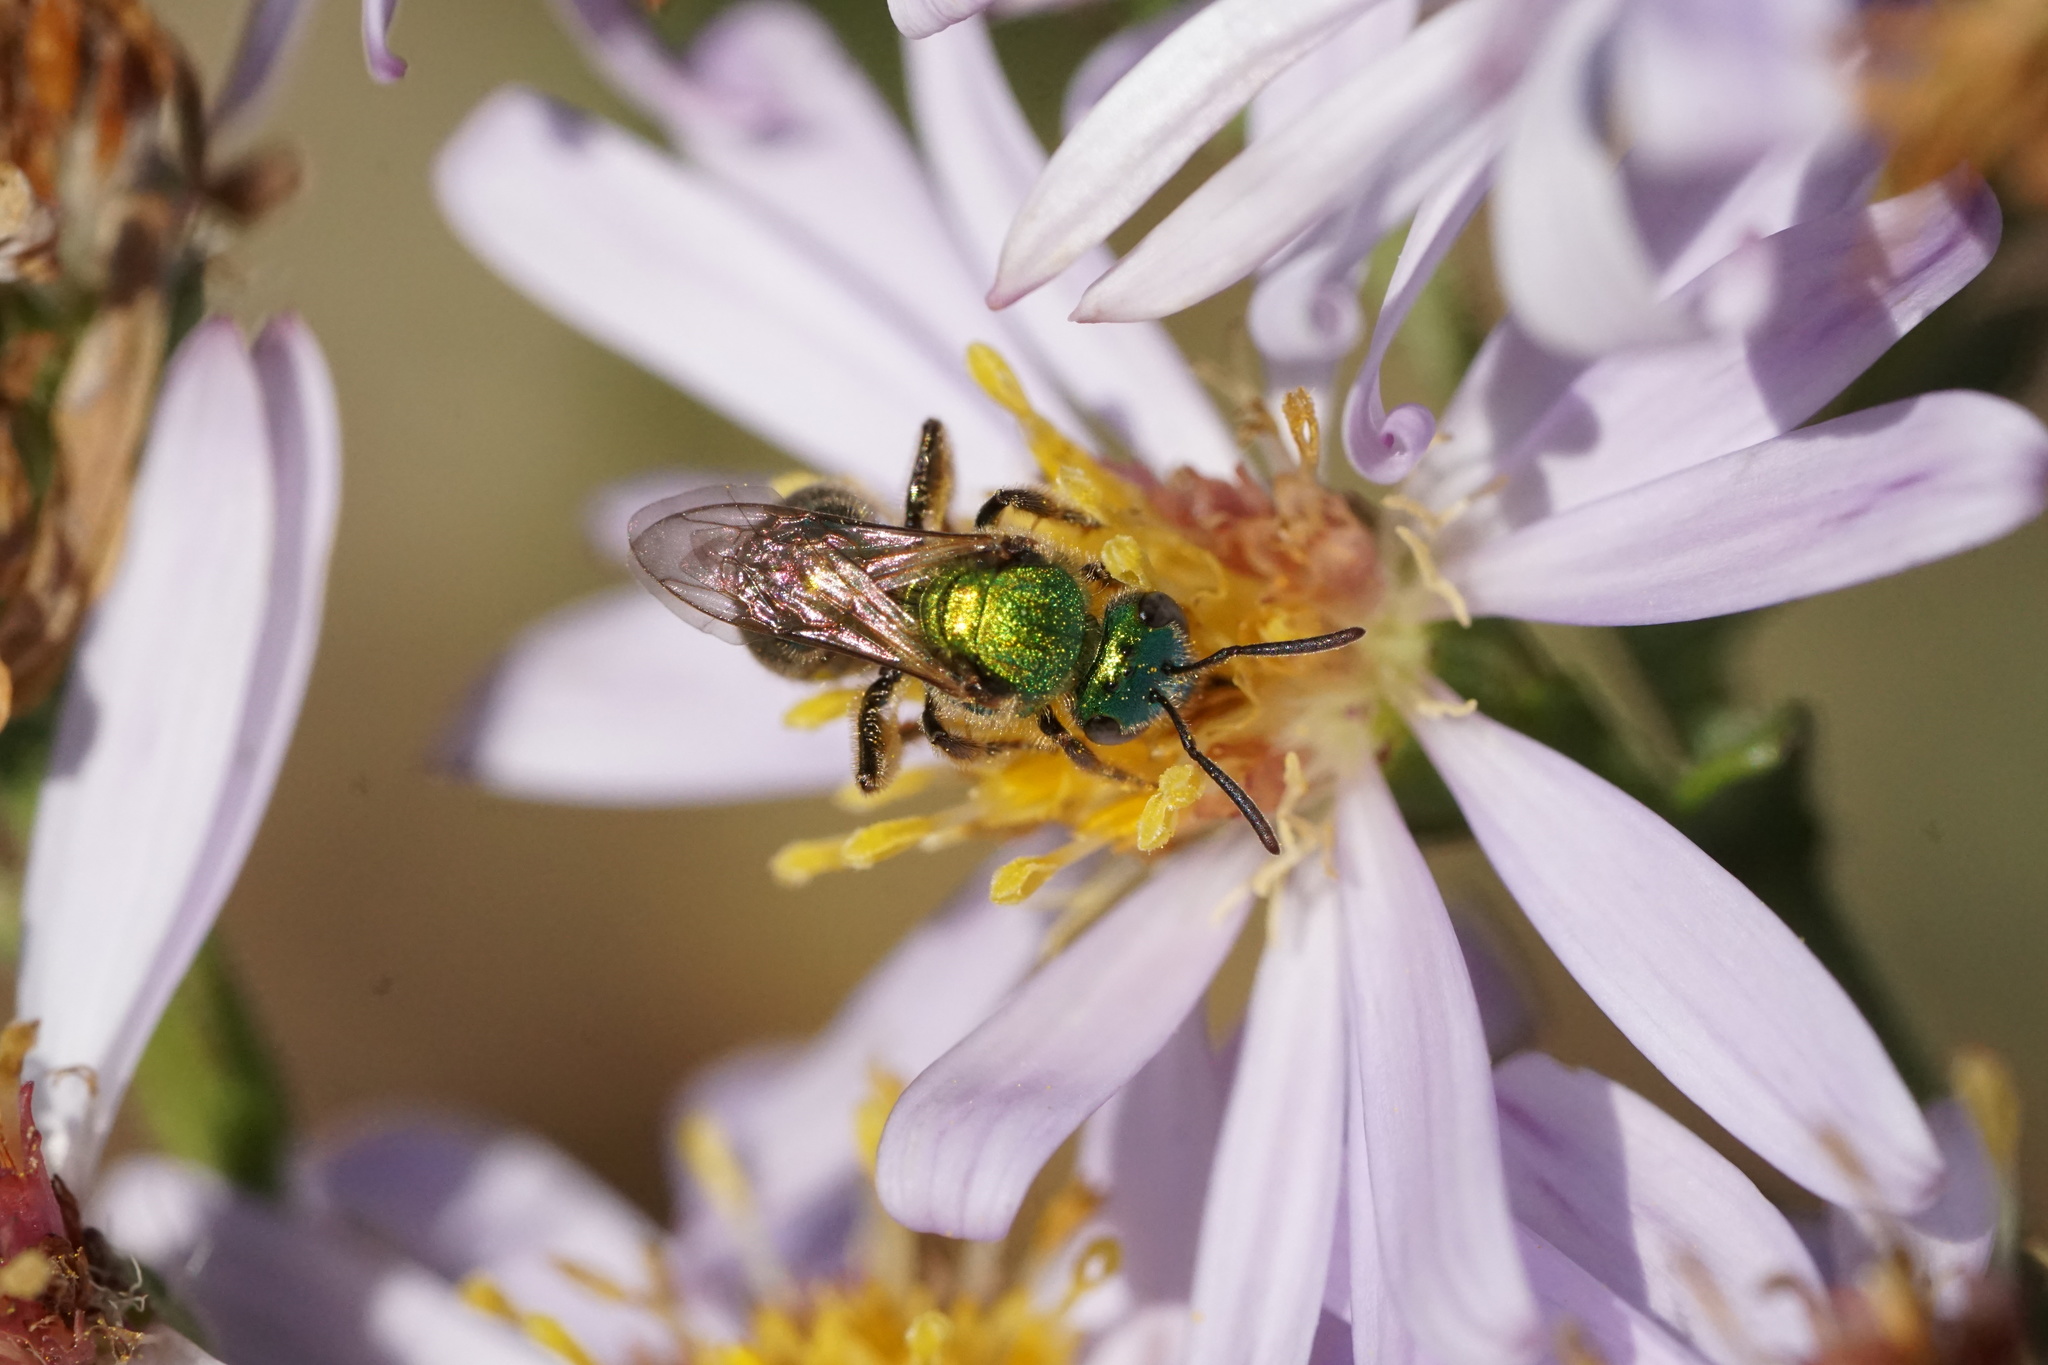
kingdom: Animalia
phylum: Arthropoda
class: Insecta
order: Hymenoptera
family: Halictidae
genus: Augochlorella
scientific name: Augochlorella aurata
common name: Golden sweat bee
